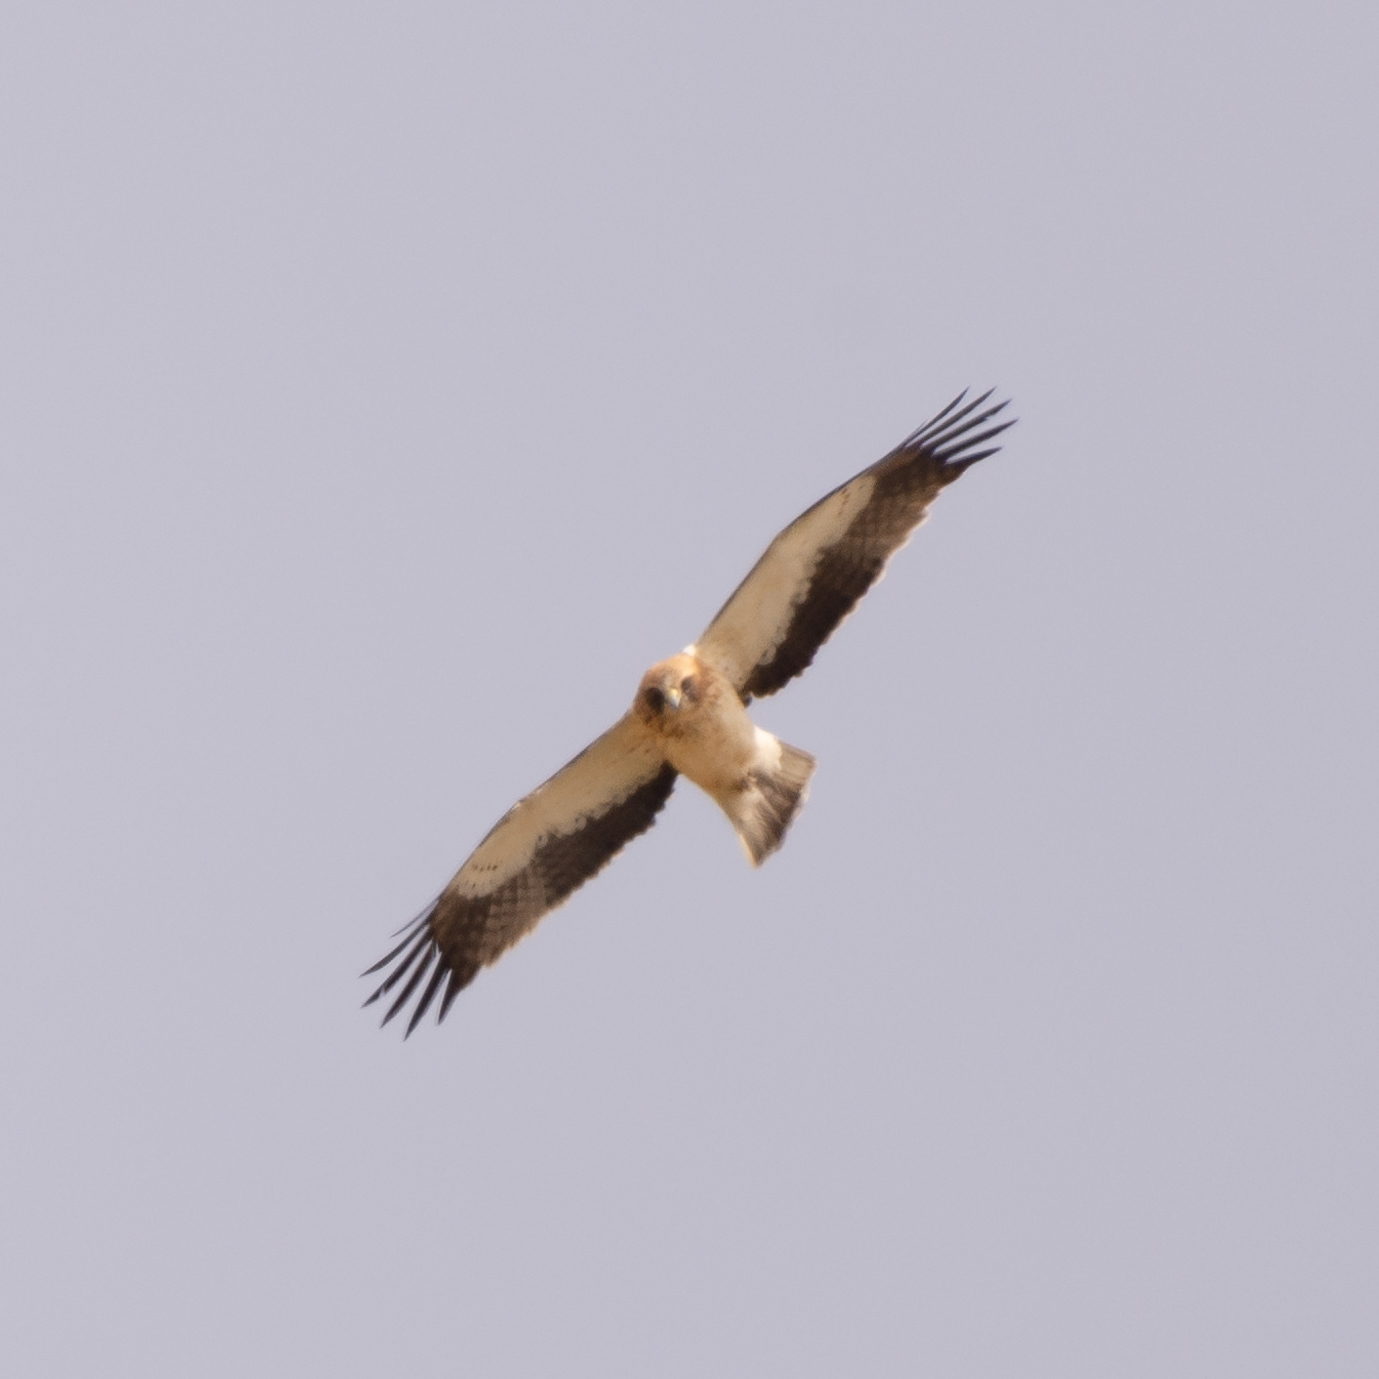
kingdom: Animalia
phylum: Chordata
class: Aves
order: Accipitriformes
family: Accipitridae
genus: Hieraaetus
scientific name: Hieraaetus pennatus
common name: Booted eagle
